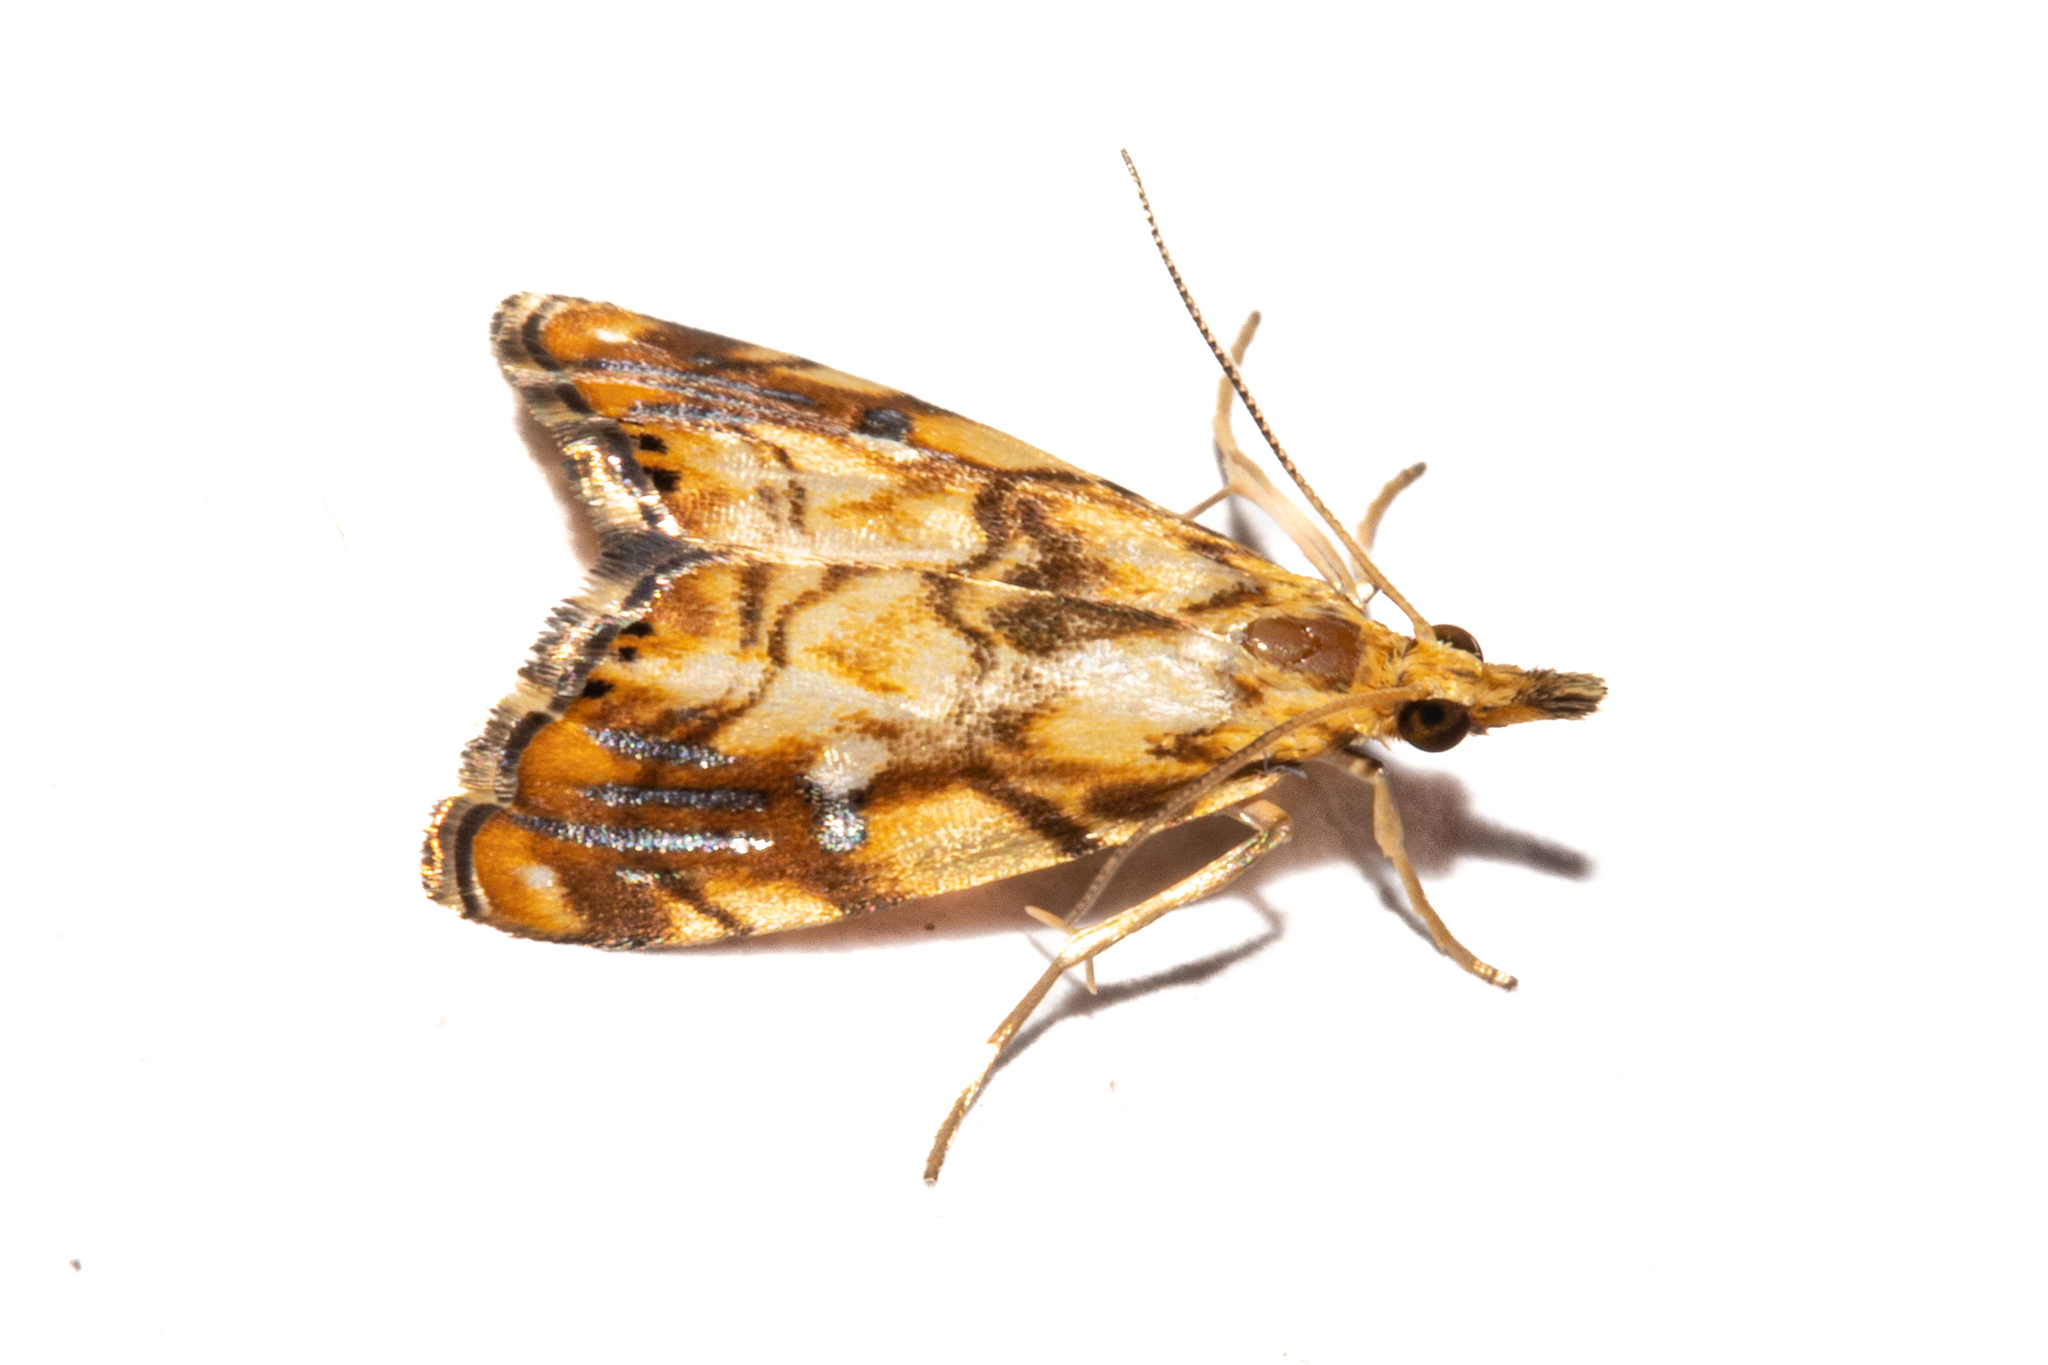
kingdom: Animalia
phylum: Arthropoda
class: Insecta
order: Lepidoptera
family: Crambidae
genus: Glaucocharis
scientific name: Glaucocharis selenaea
